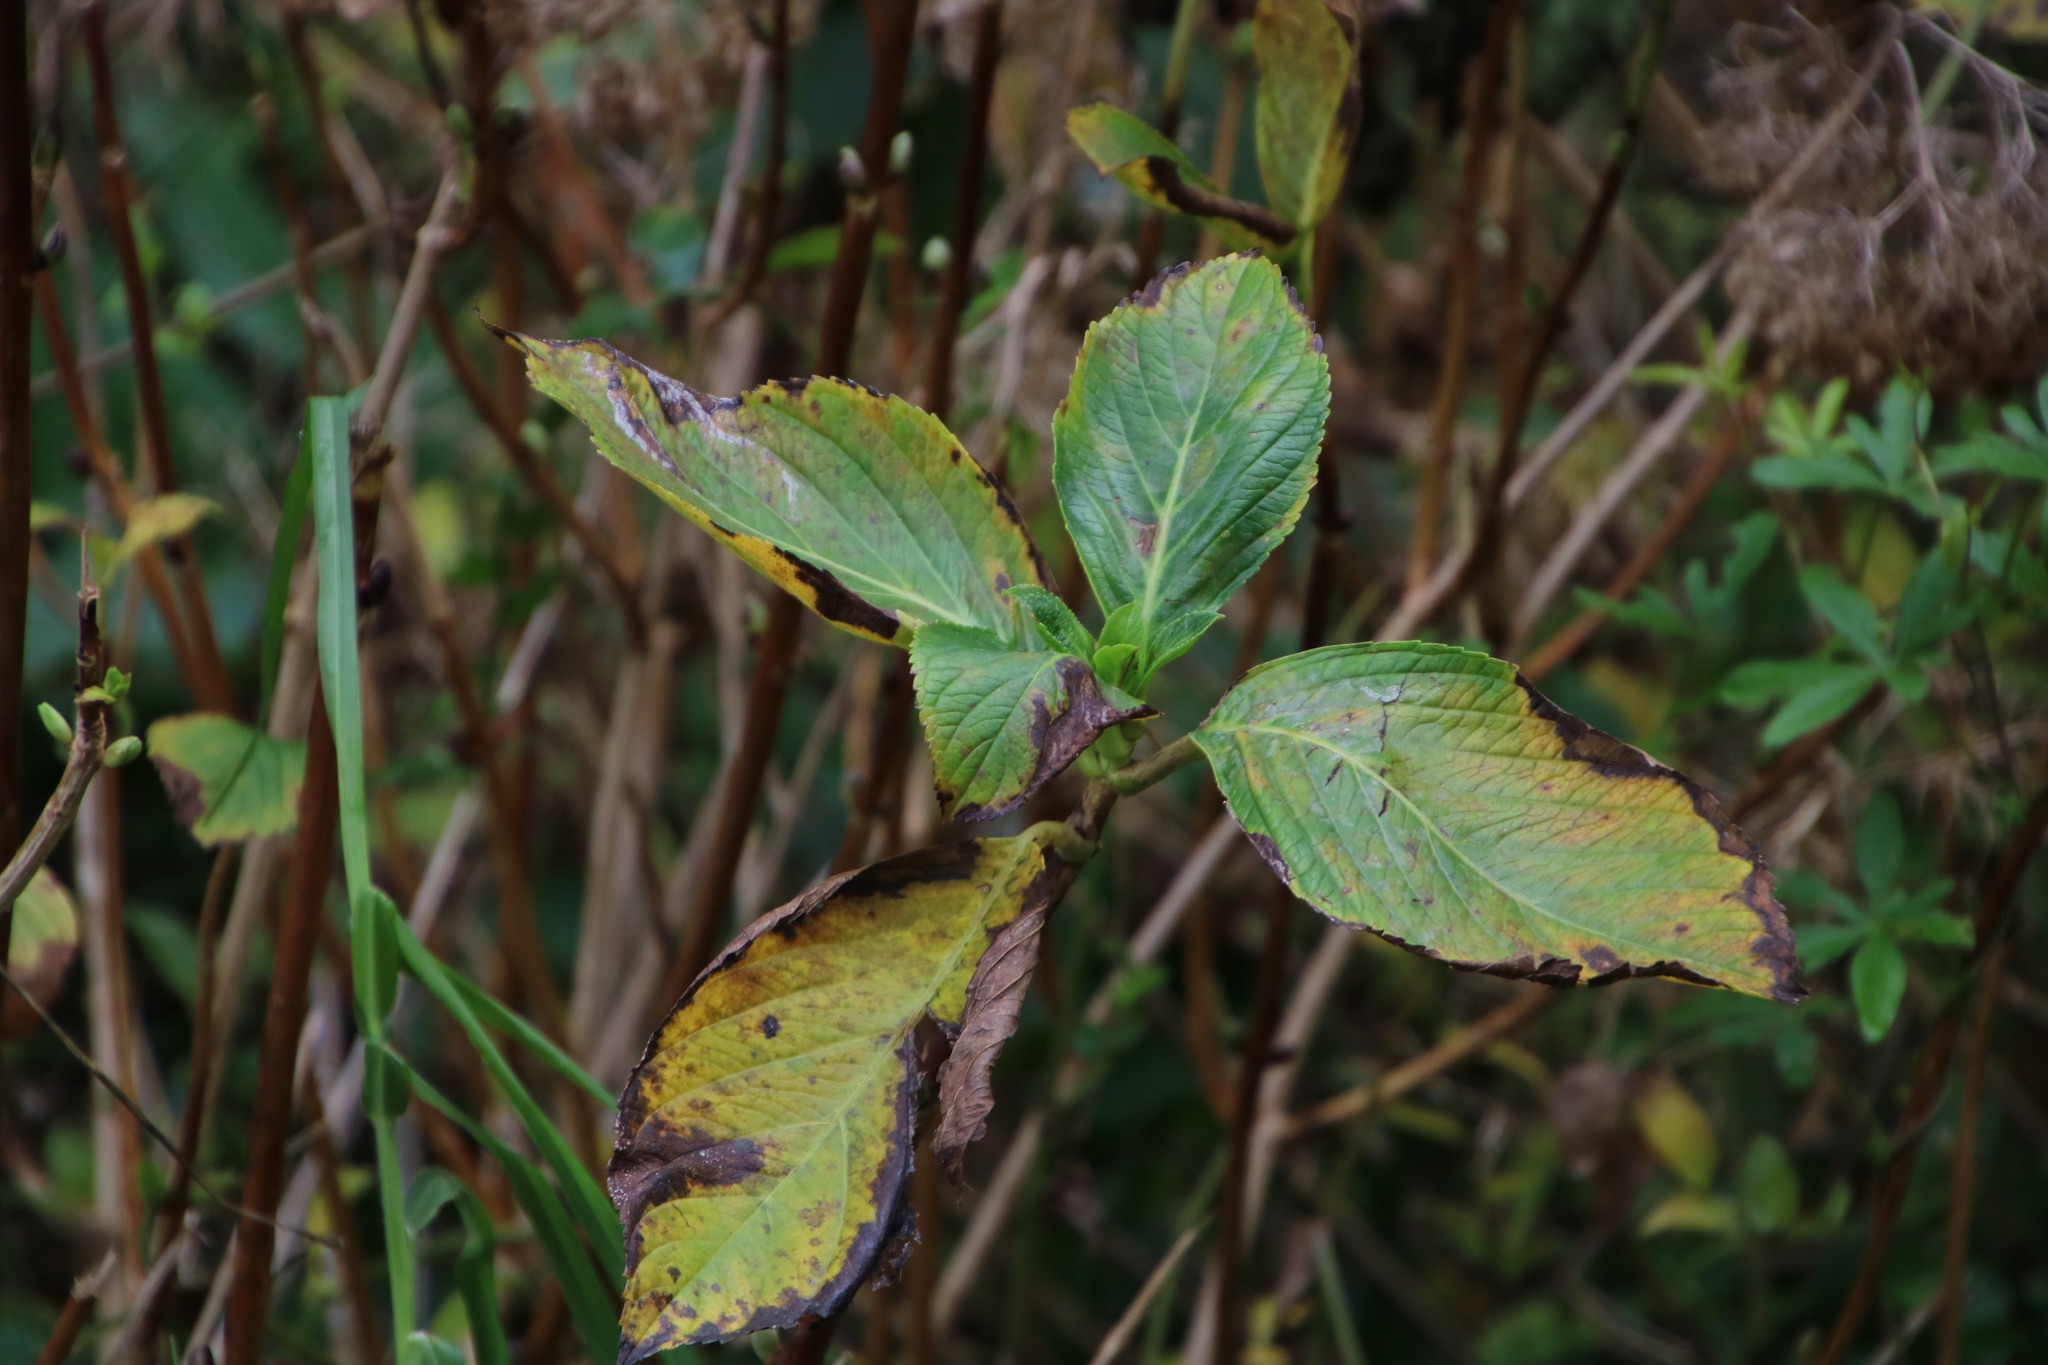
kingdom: Plantae
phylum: Tracheophyta
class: Magnoliopsida
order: Cornales
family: Hydrangeaceae
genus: Hydrangea
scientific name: Hydrangea macrophylla
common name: Hydrangea
